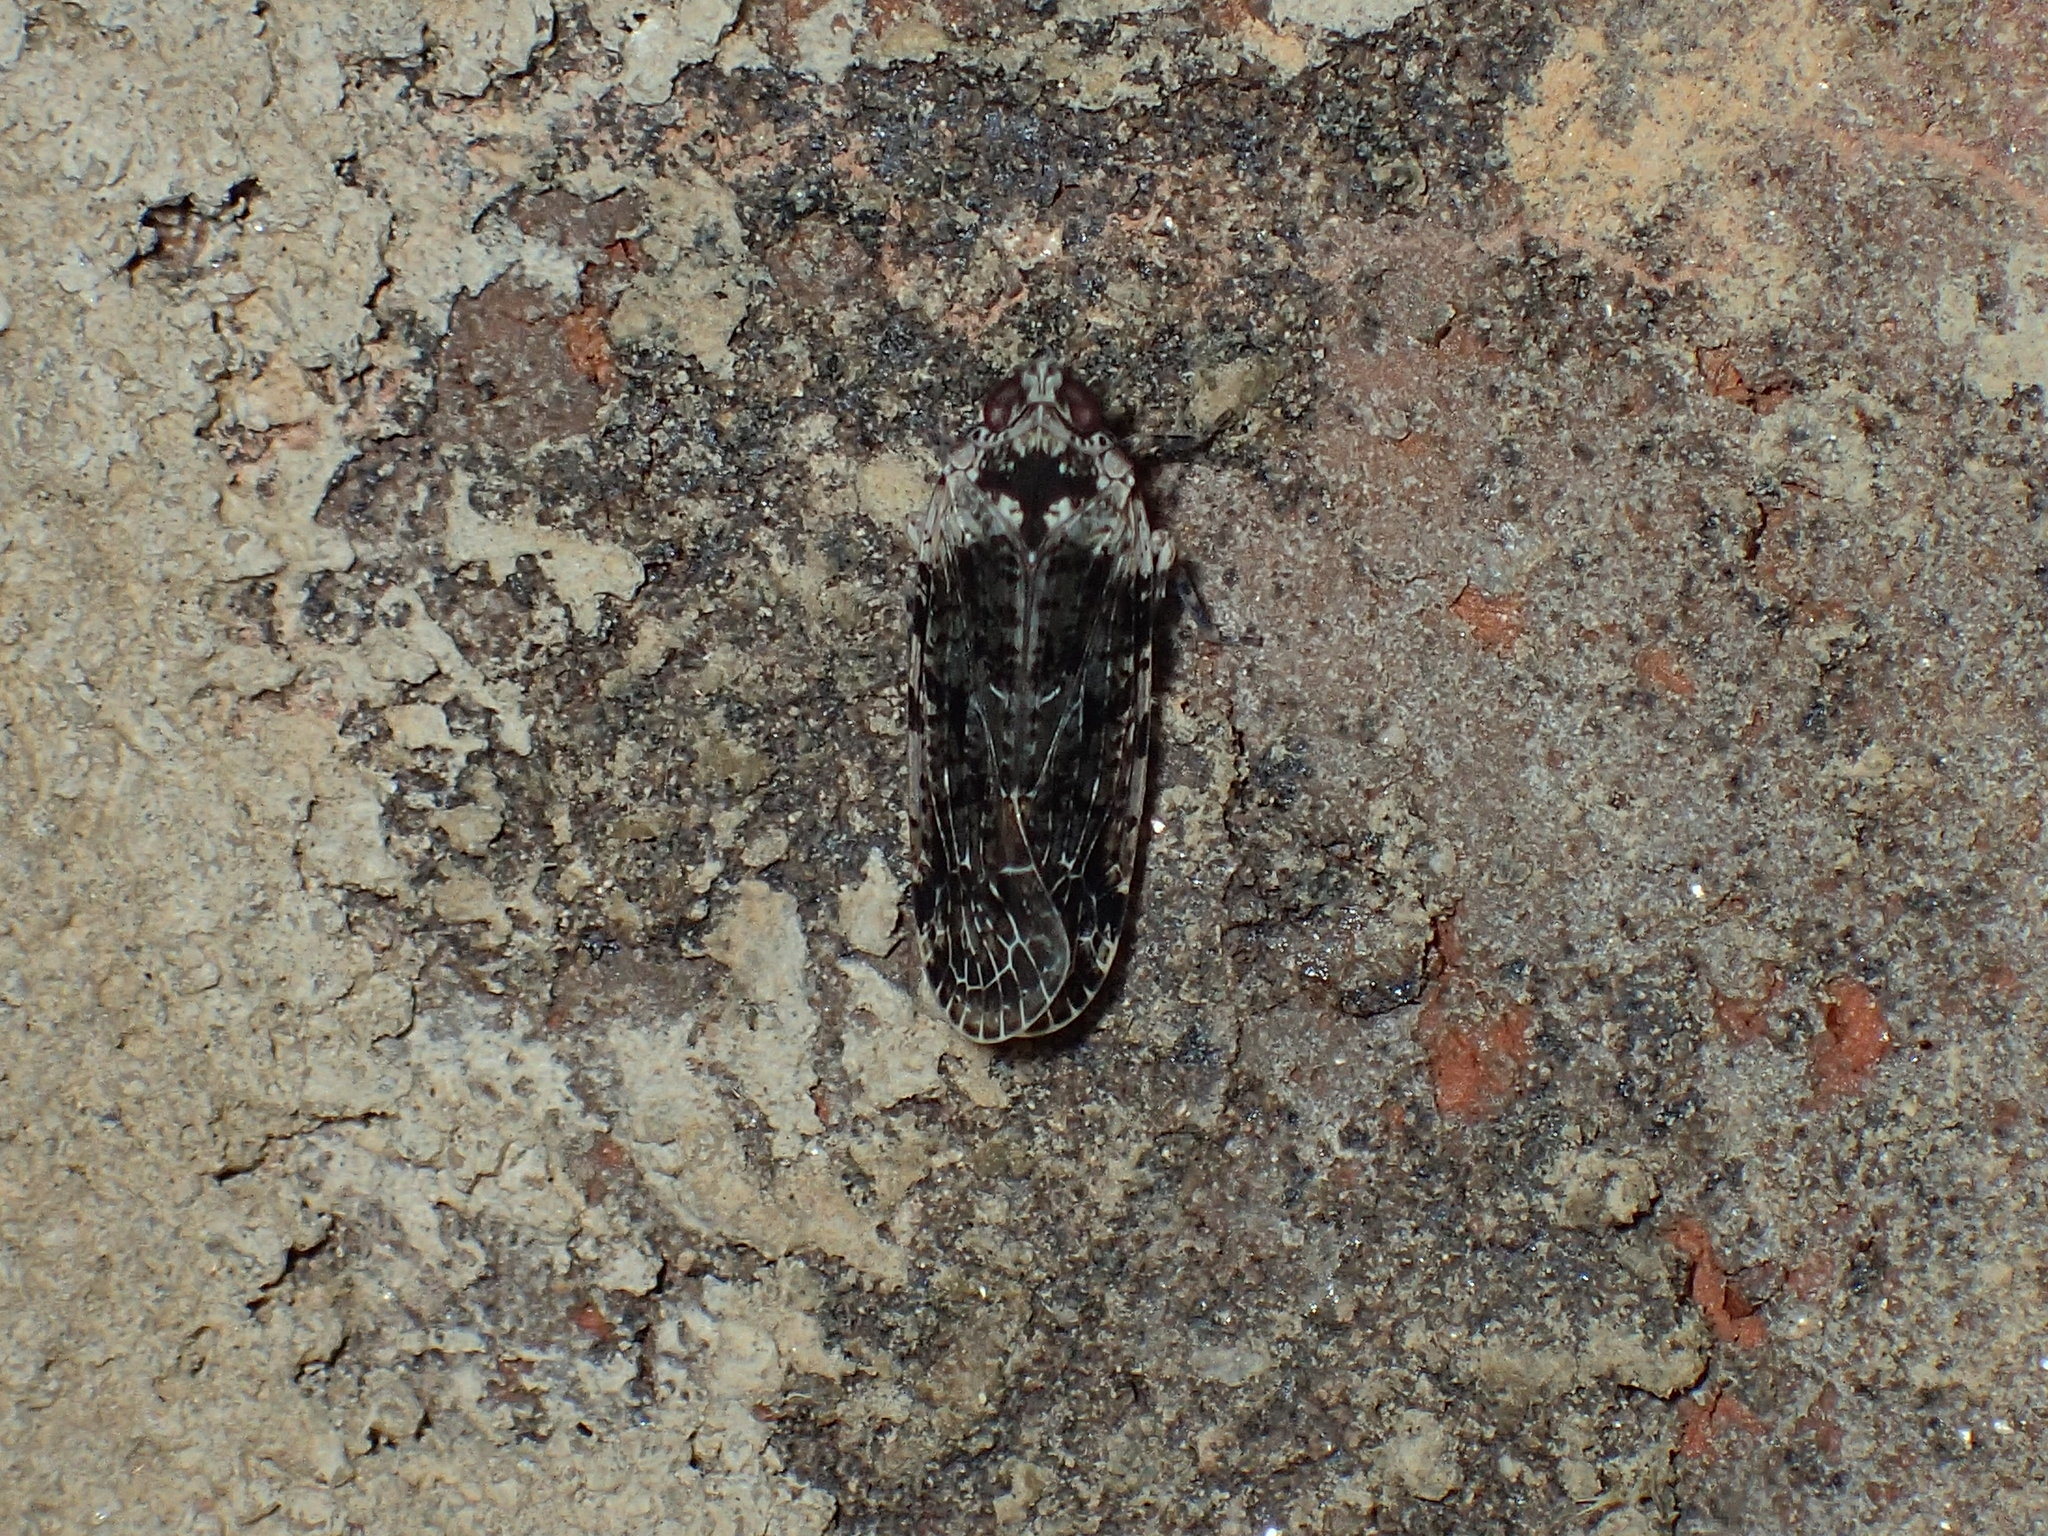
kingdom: Animalia
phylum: Arthropoda
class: Insecta
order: Hemiptera
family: Achilidae
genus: Catonia
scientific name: Catonia nava
